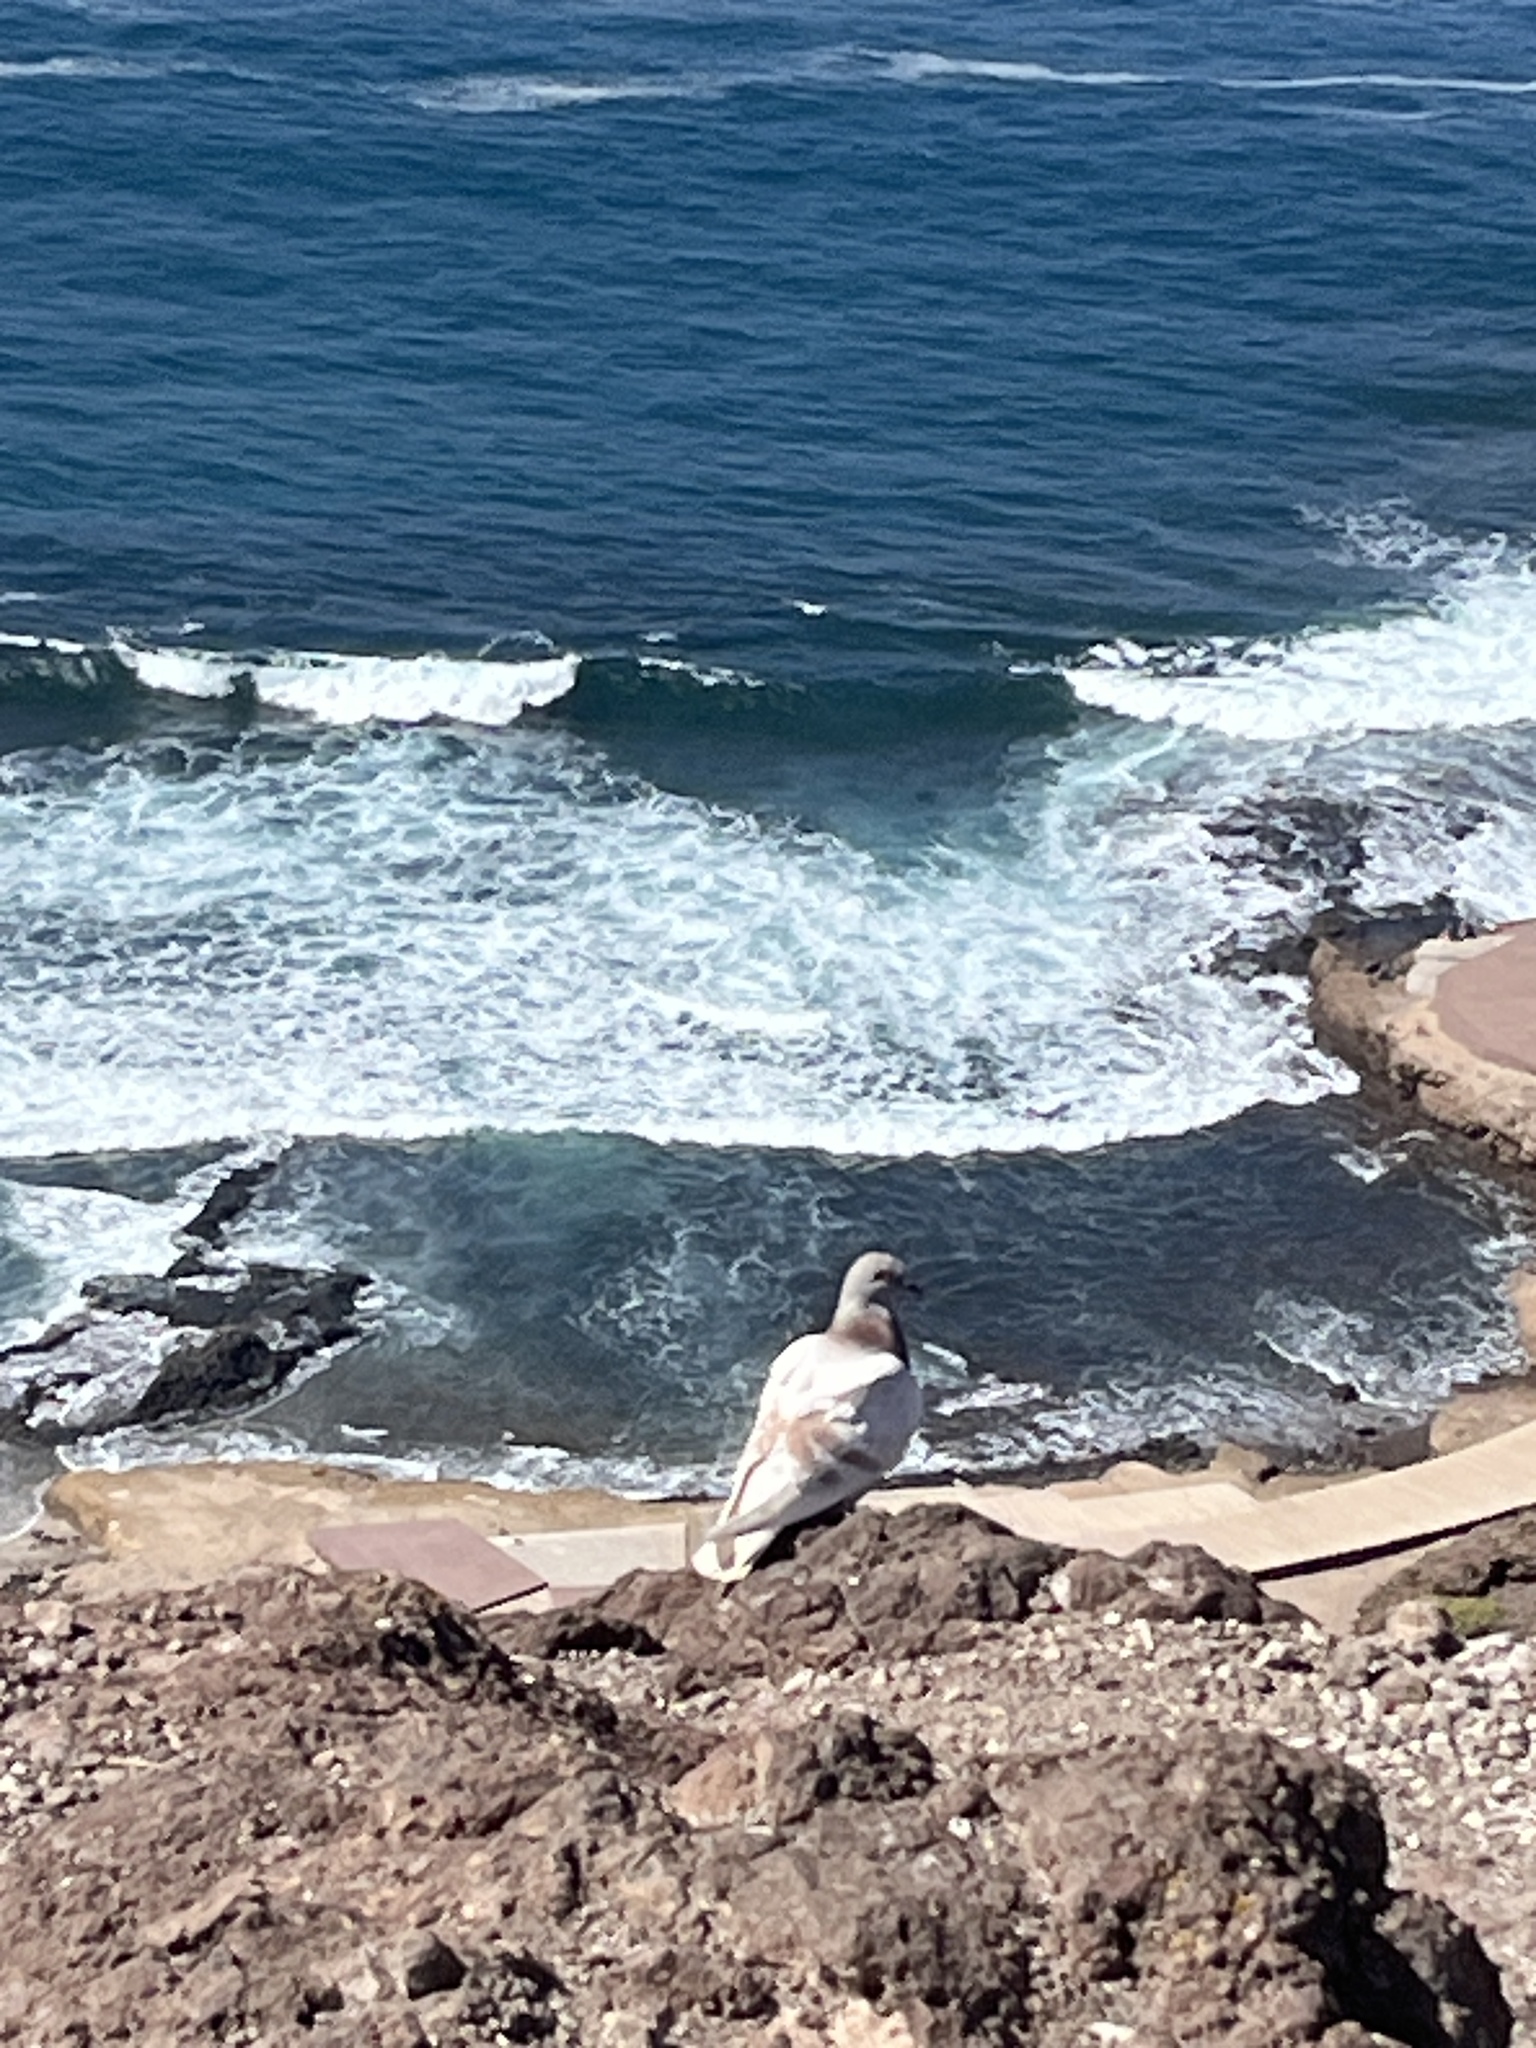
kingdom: Animalia
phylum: Chordata
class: Aves
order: Columbiformes
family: Columbidae
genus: Columba
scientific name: Columba livia
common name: Rock pigeon
